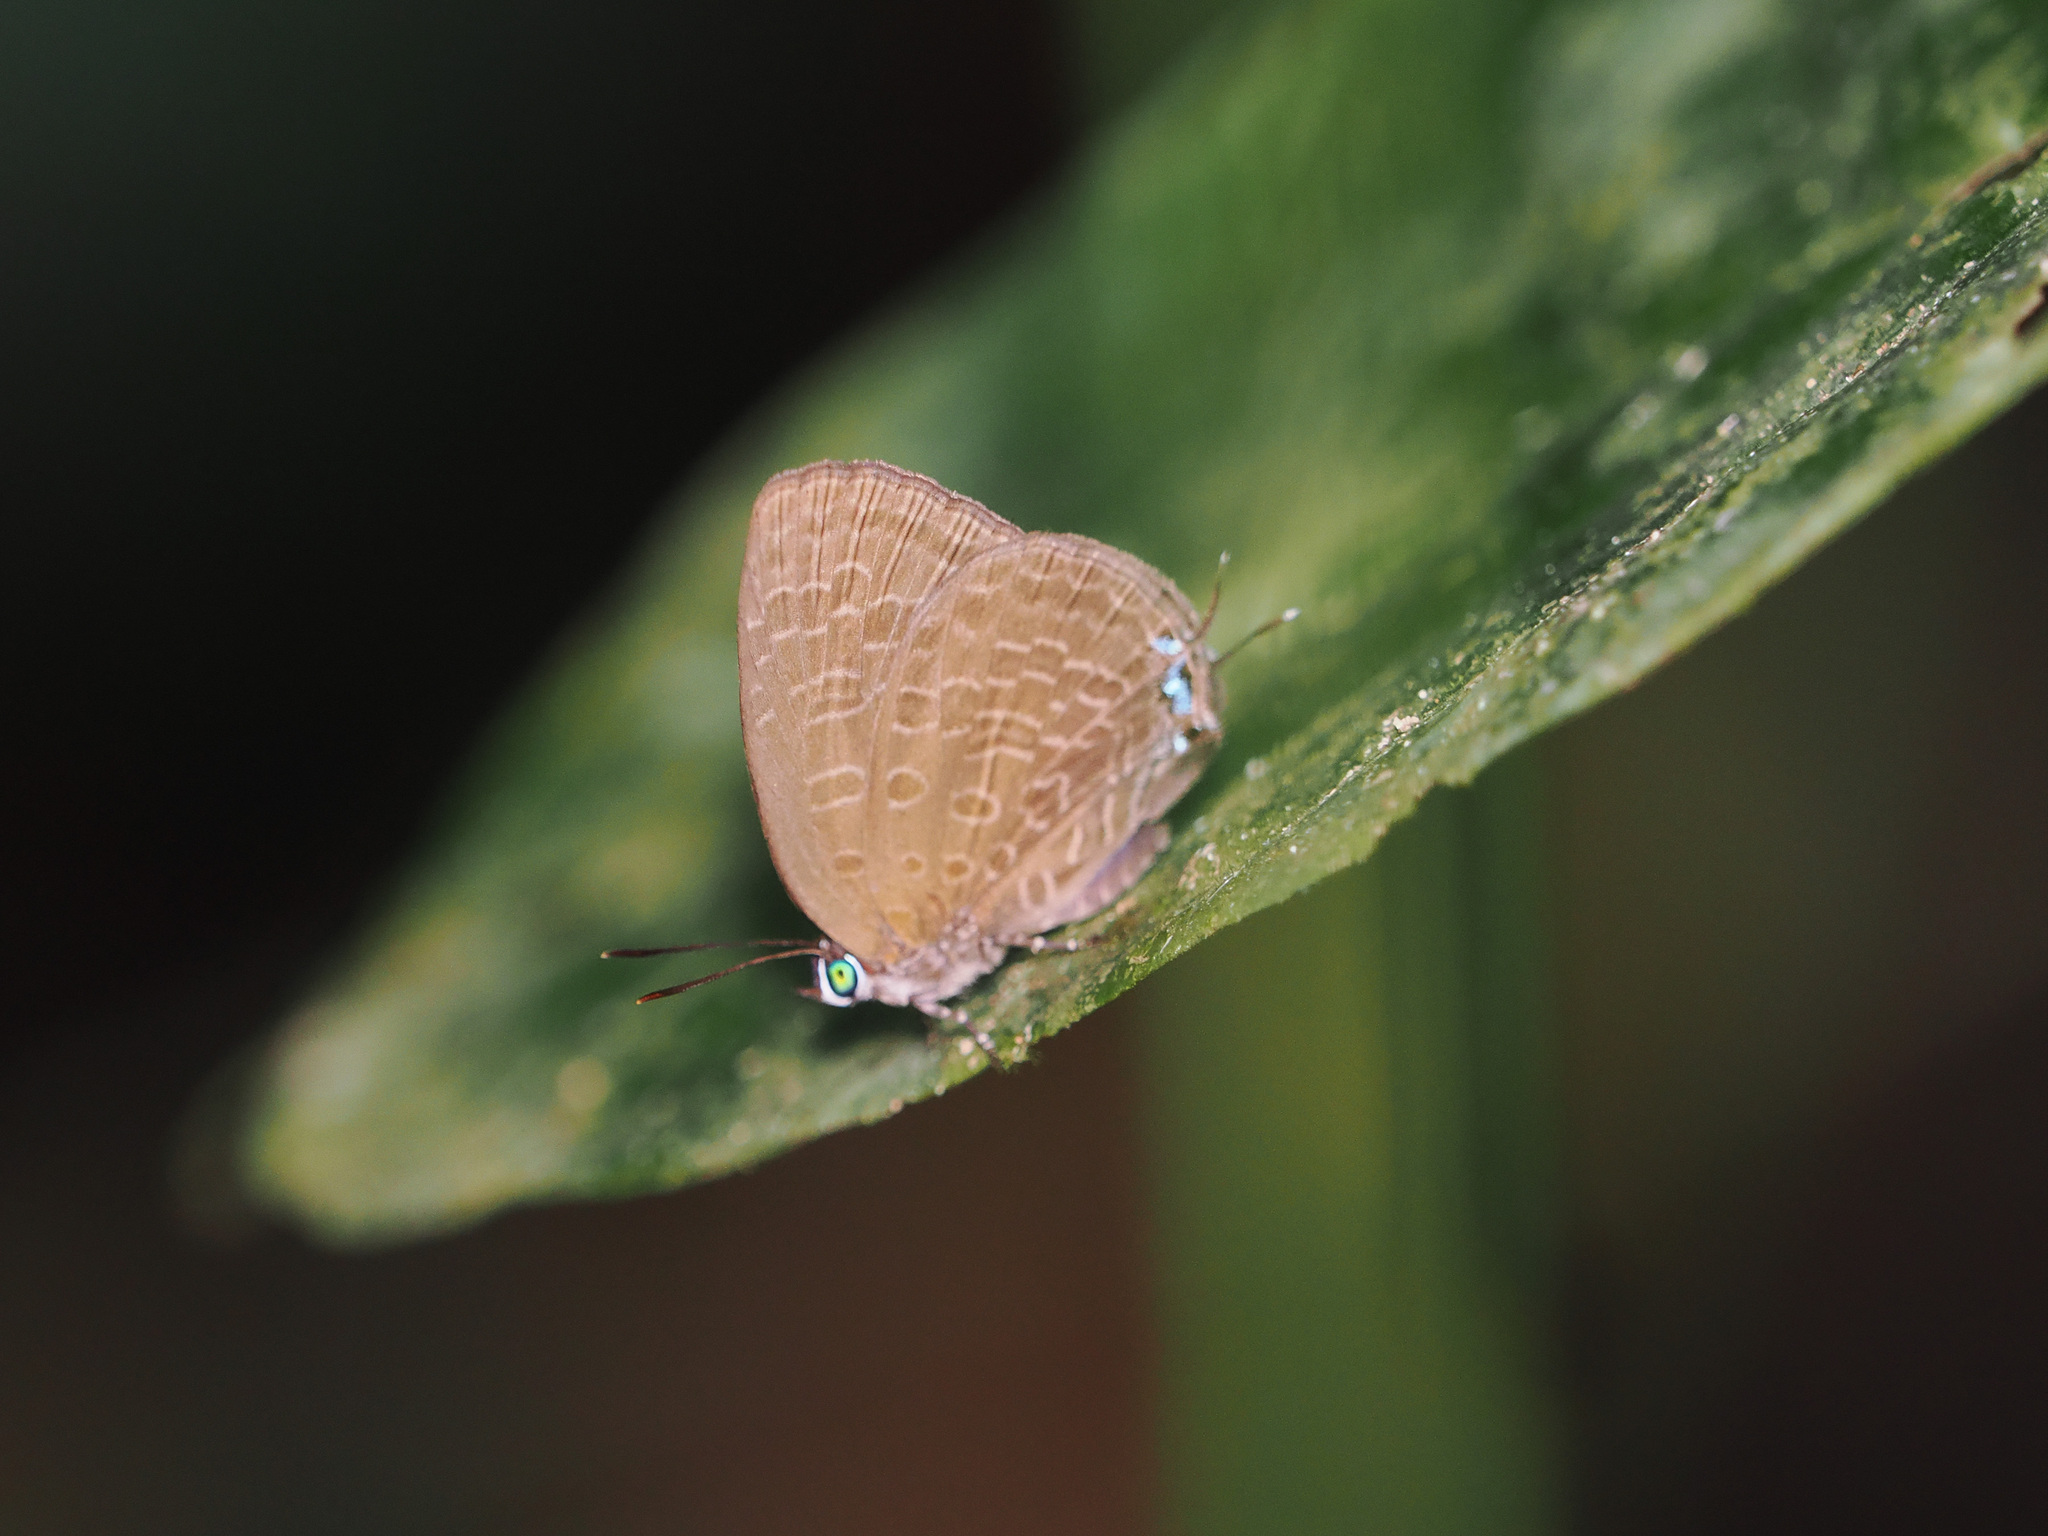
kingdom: Animalia
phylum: Arthropoda
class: Insecta
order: Lepidoptera
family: Lycaenidae
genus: Arhopala
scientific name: Arhopala elopura
